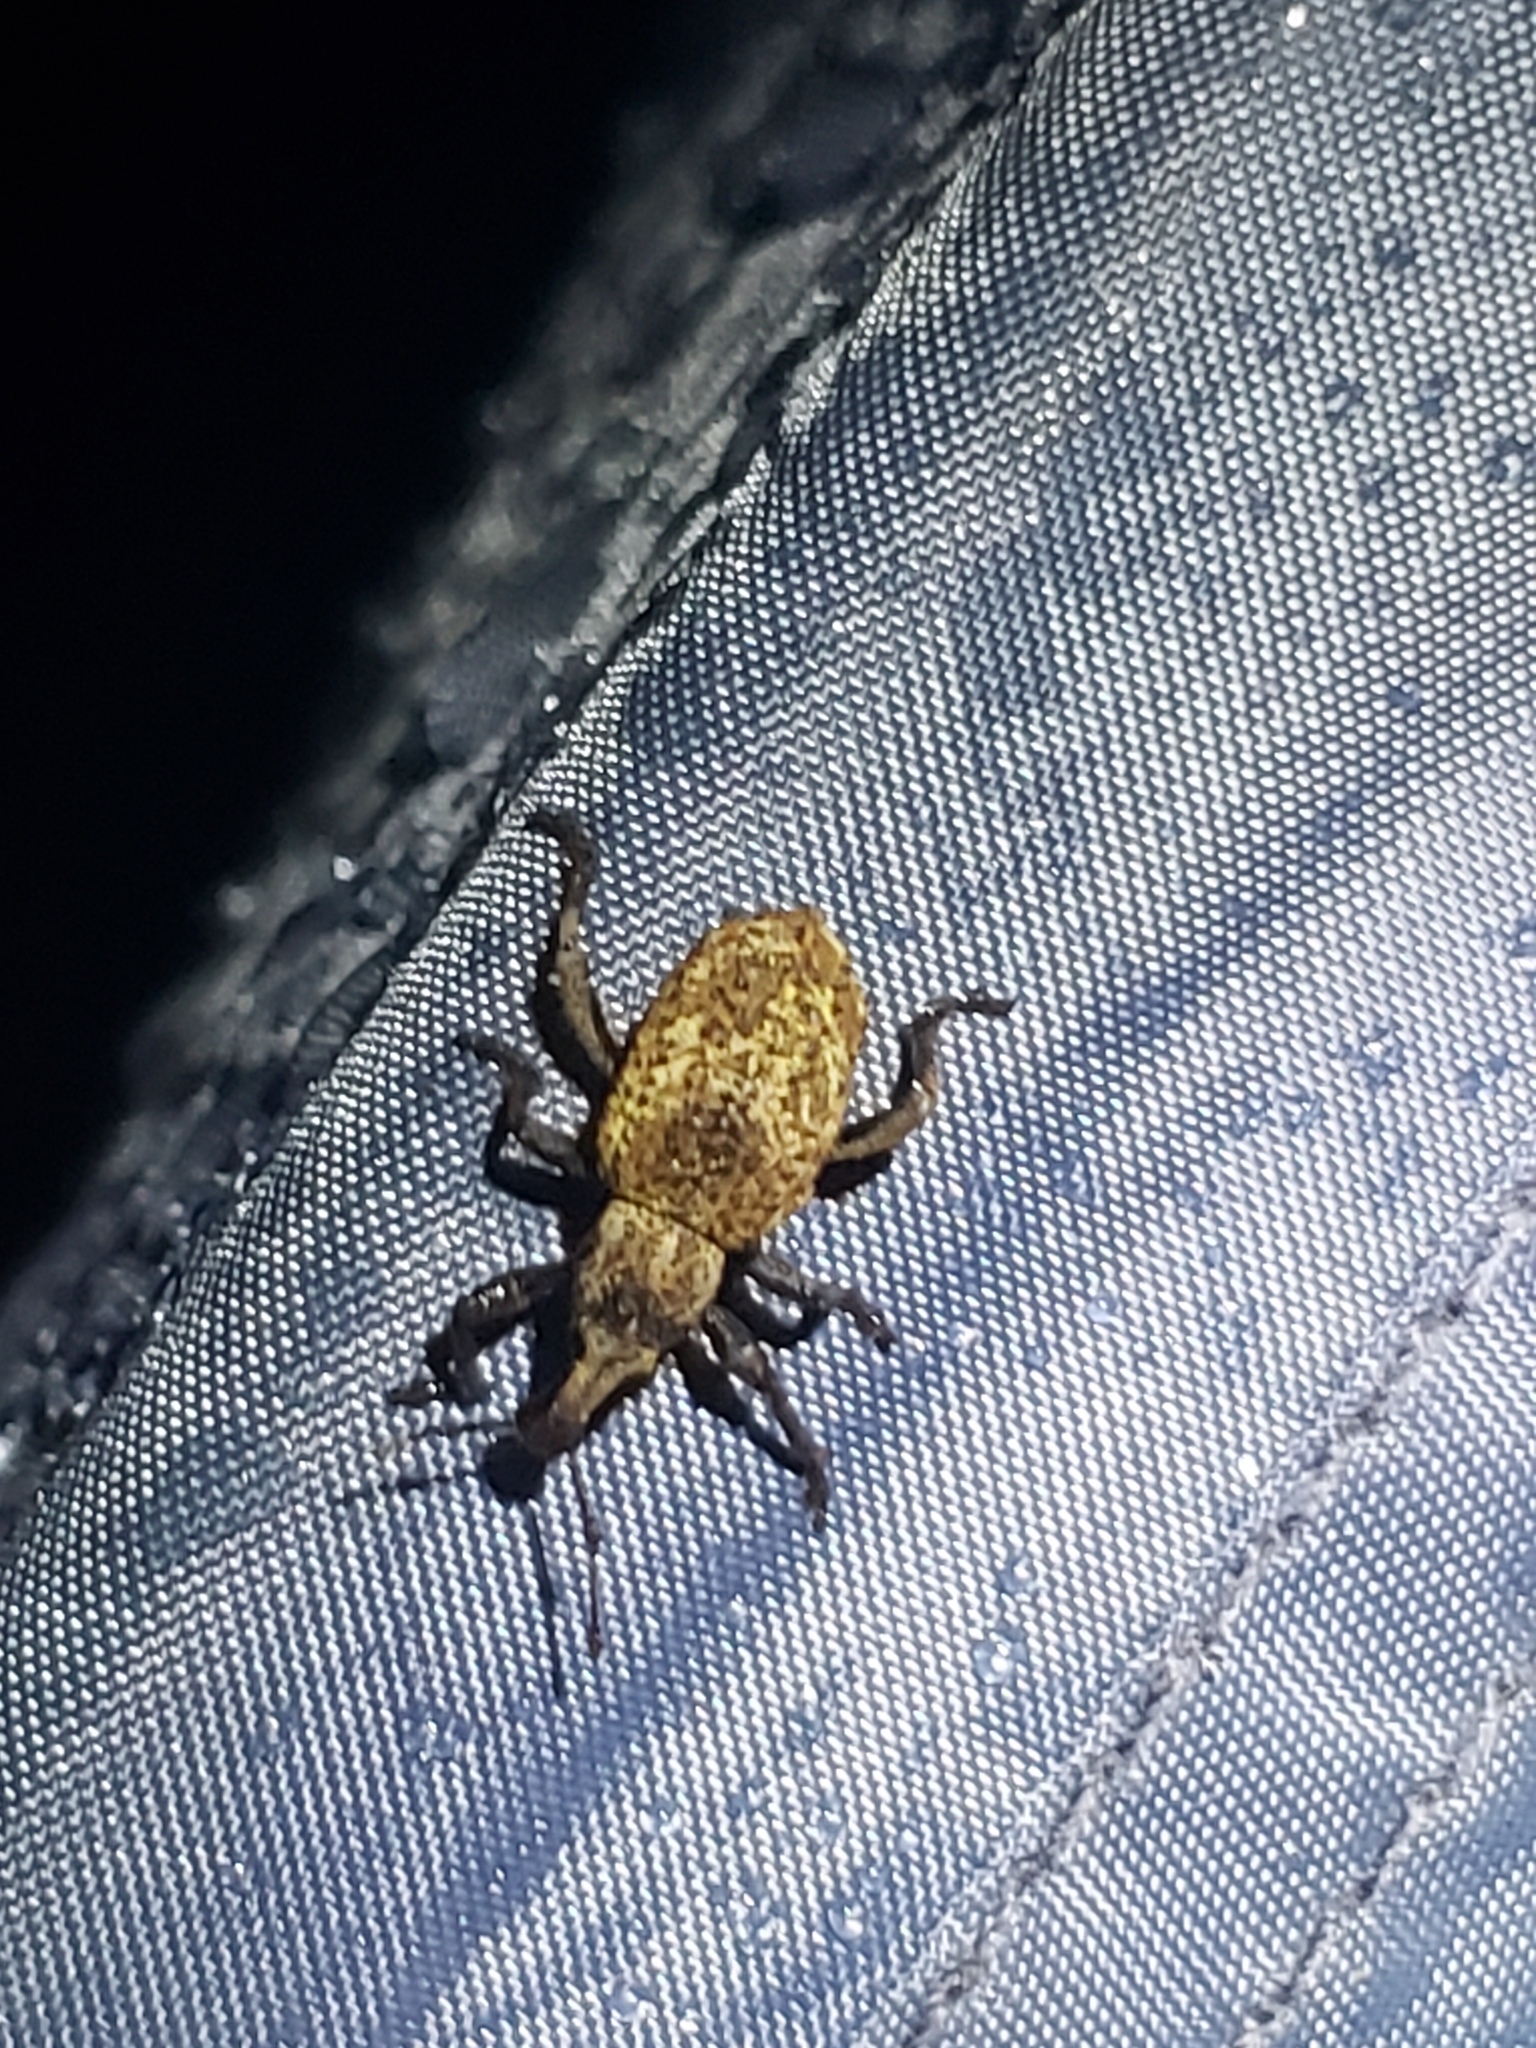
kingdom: Animalia
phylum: Arthropoda
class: Insecta
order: Coleoptera
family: Curculionidae
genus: Panscopus
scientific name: Panscopus gemmatus
